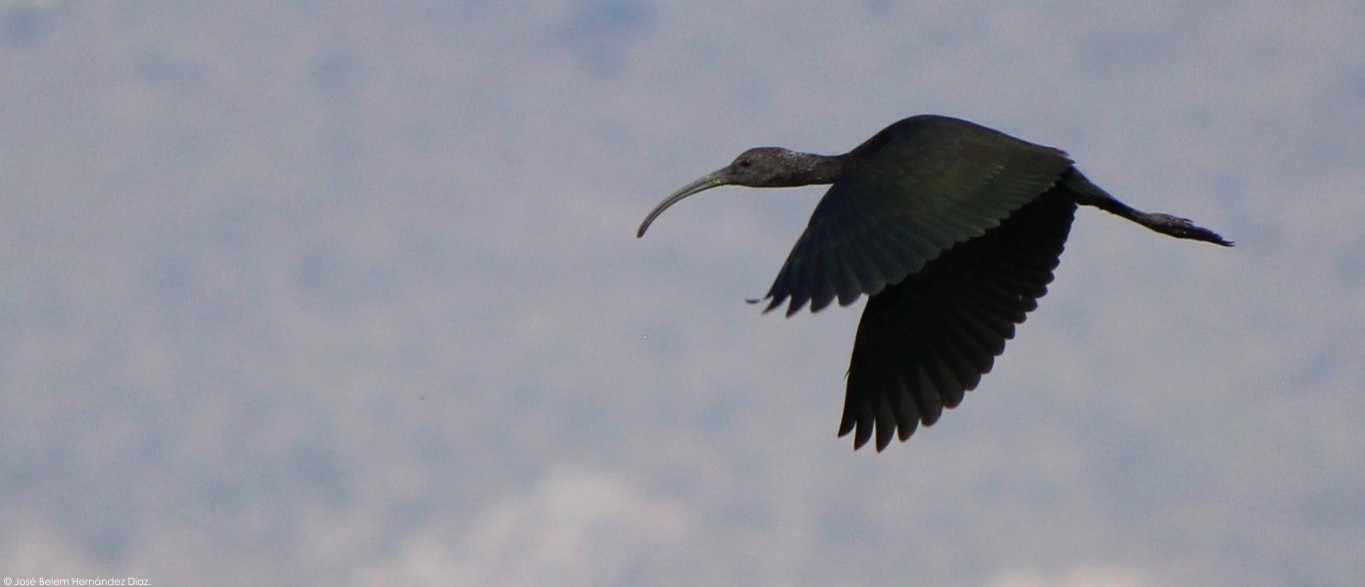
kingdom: Animalia
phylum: Chordata
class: Aves
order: Pelecaniformes
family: Threskiornithidae
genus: Plegadis
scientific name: Plegadis chihi
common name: White-faced ibis
